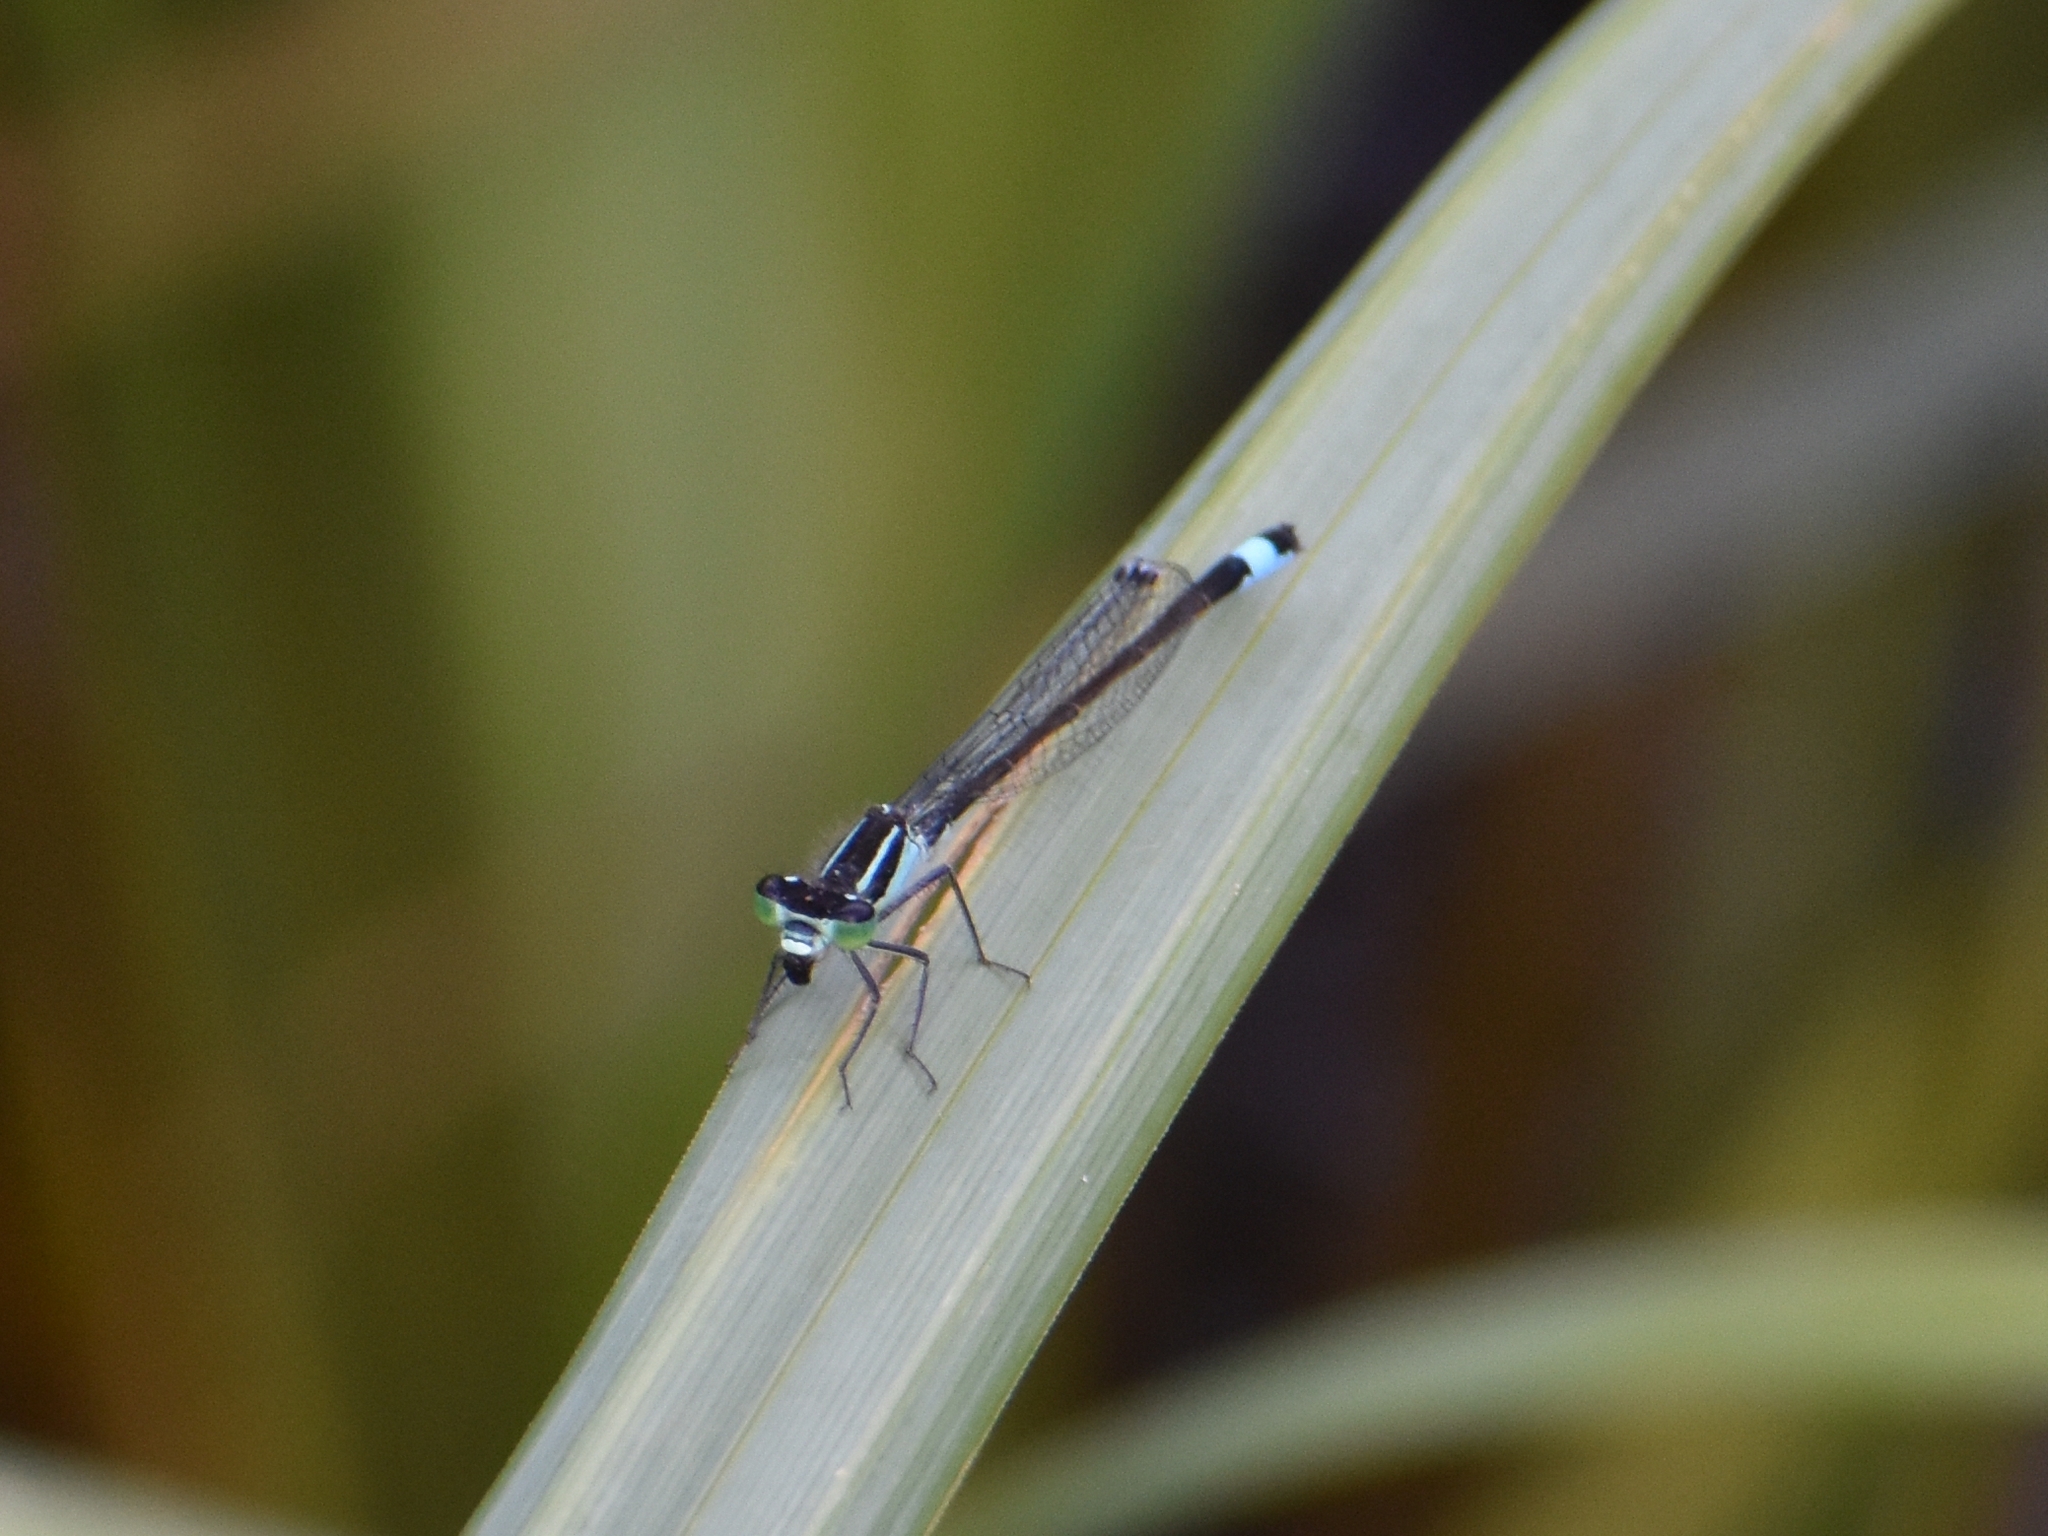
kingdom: Animalia
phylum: Arthropoda
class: Insecta
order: Odonata
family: Coenagrionidae
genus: Ischnura
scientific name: Ischnura elegans
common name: Blue-tailed damselfly
